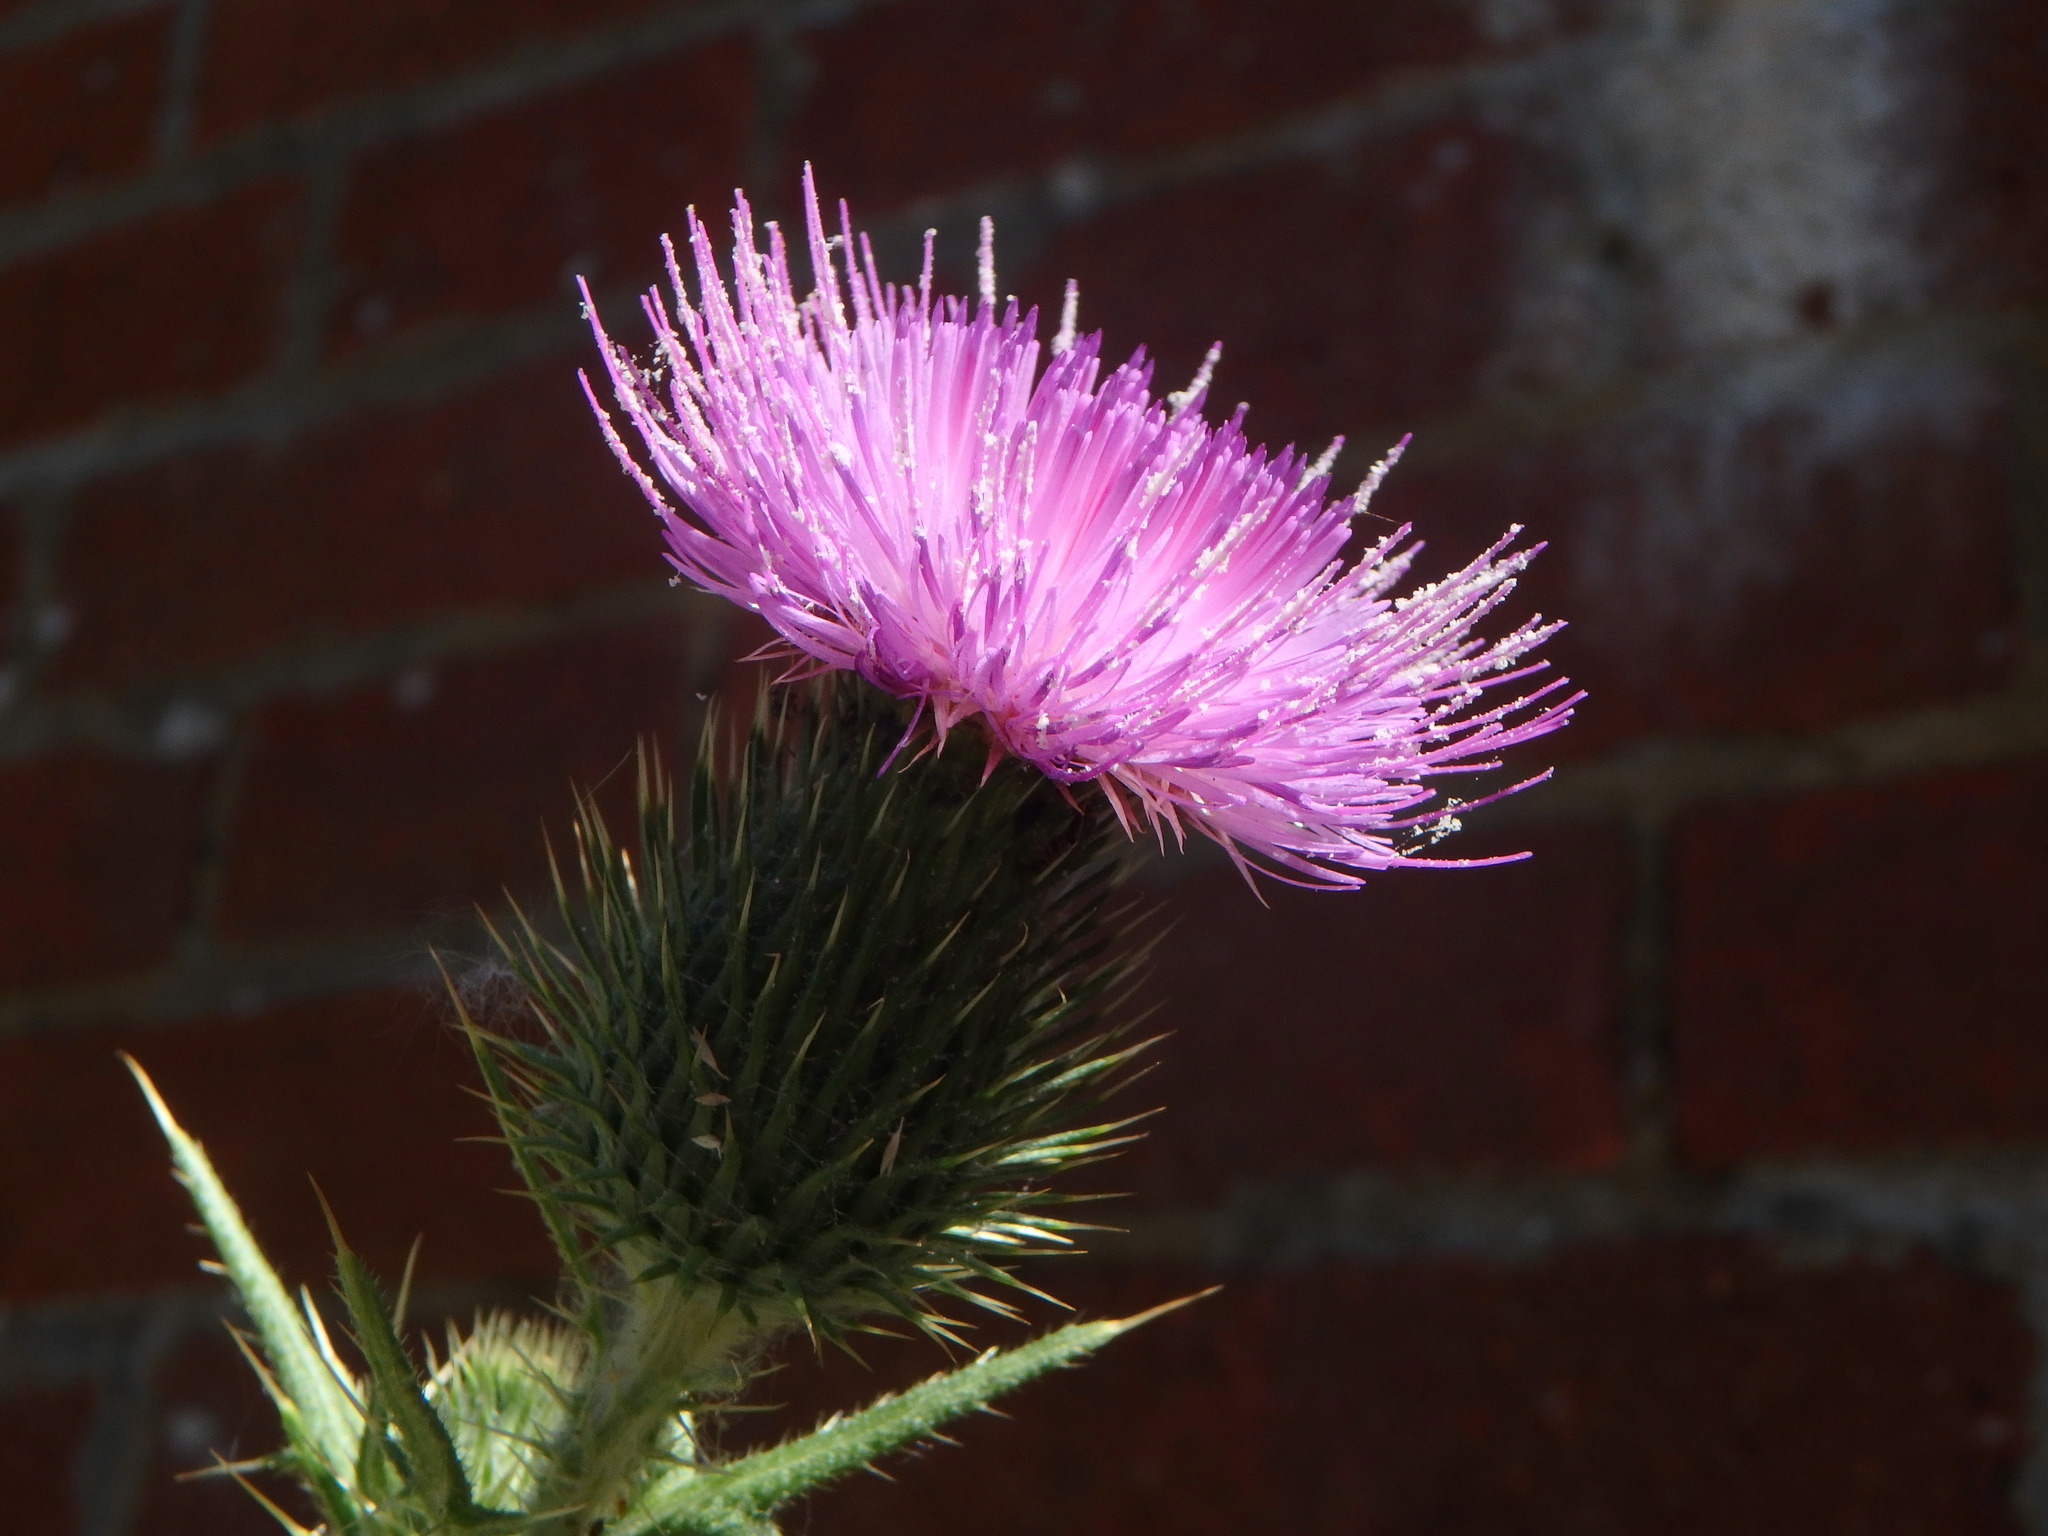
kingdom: Plantae
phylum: Tracheophyta
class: Magnoliopsida
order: Asterales
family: Asteraceae
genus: Cirsium
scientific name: Cirsium vulgare
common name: Bull thistle
